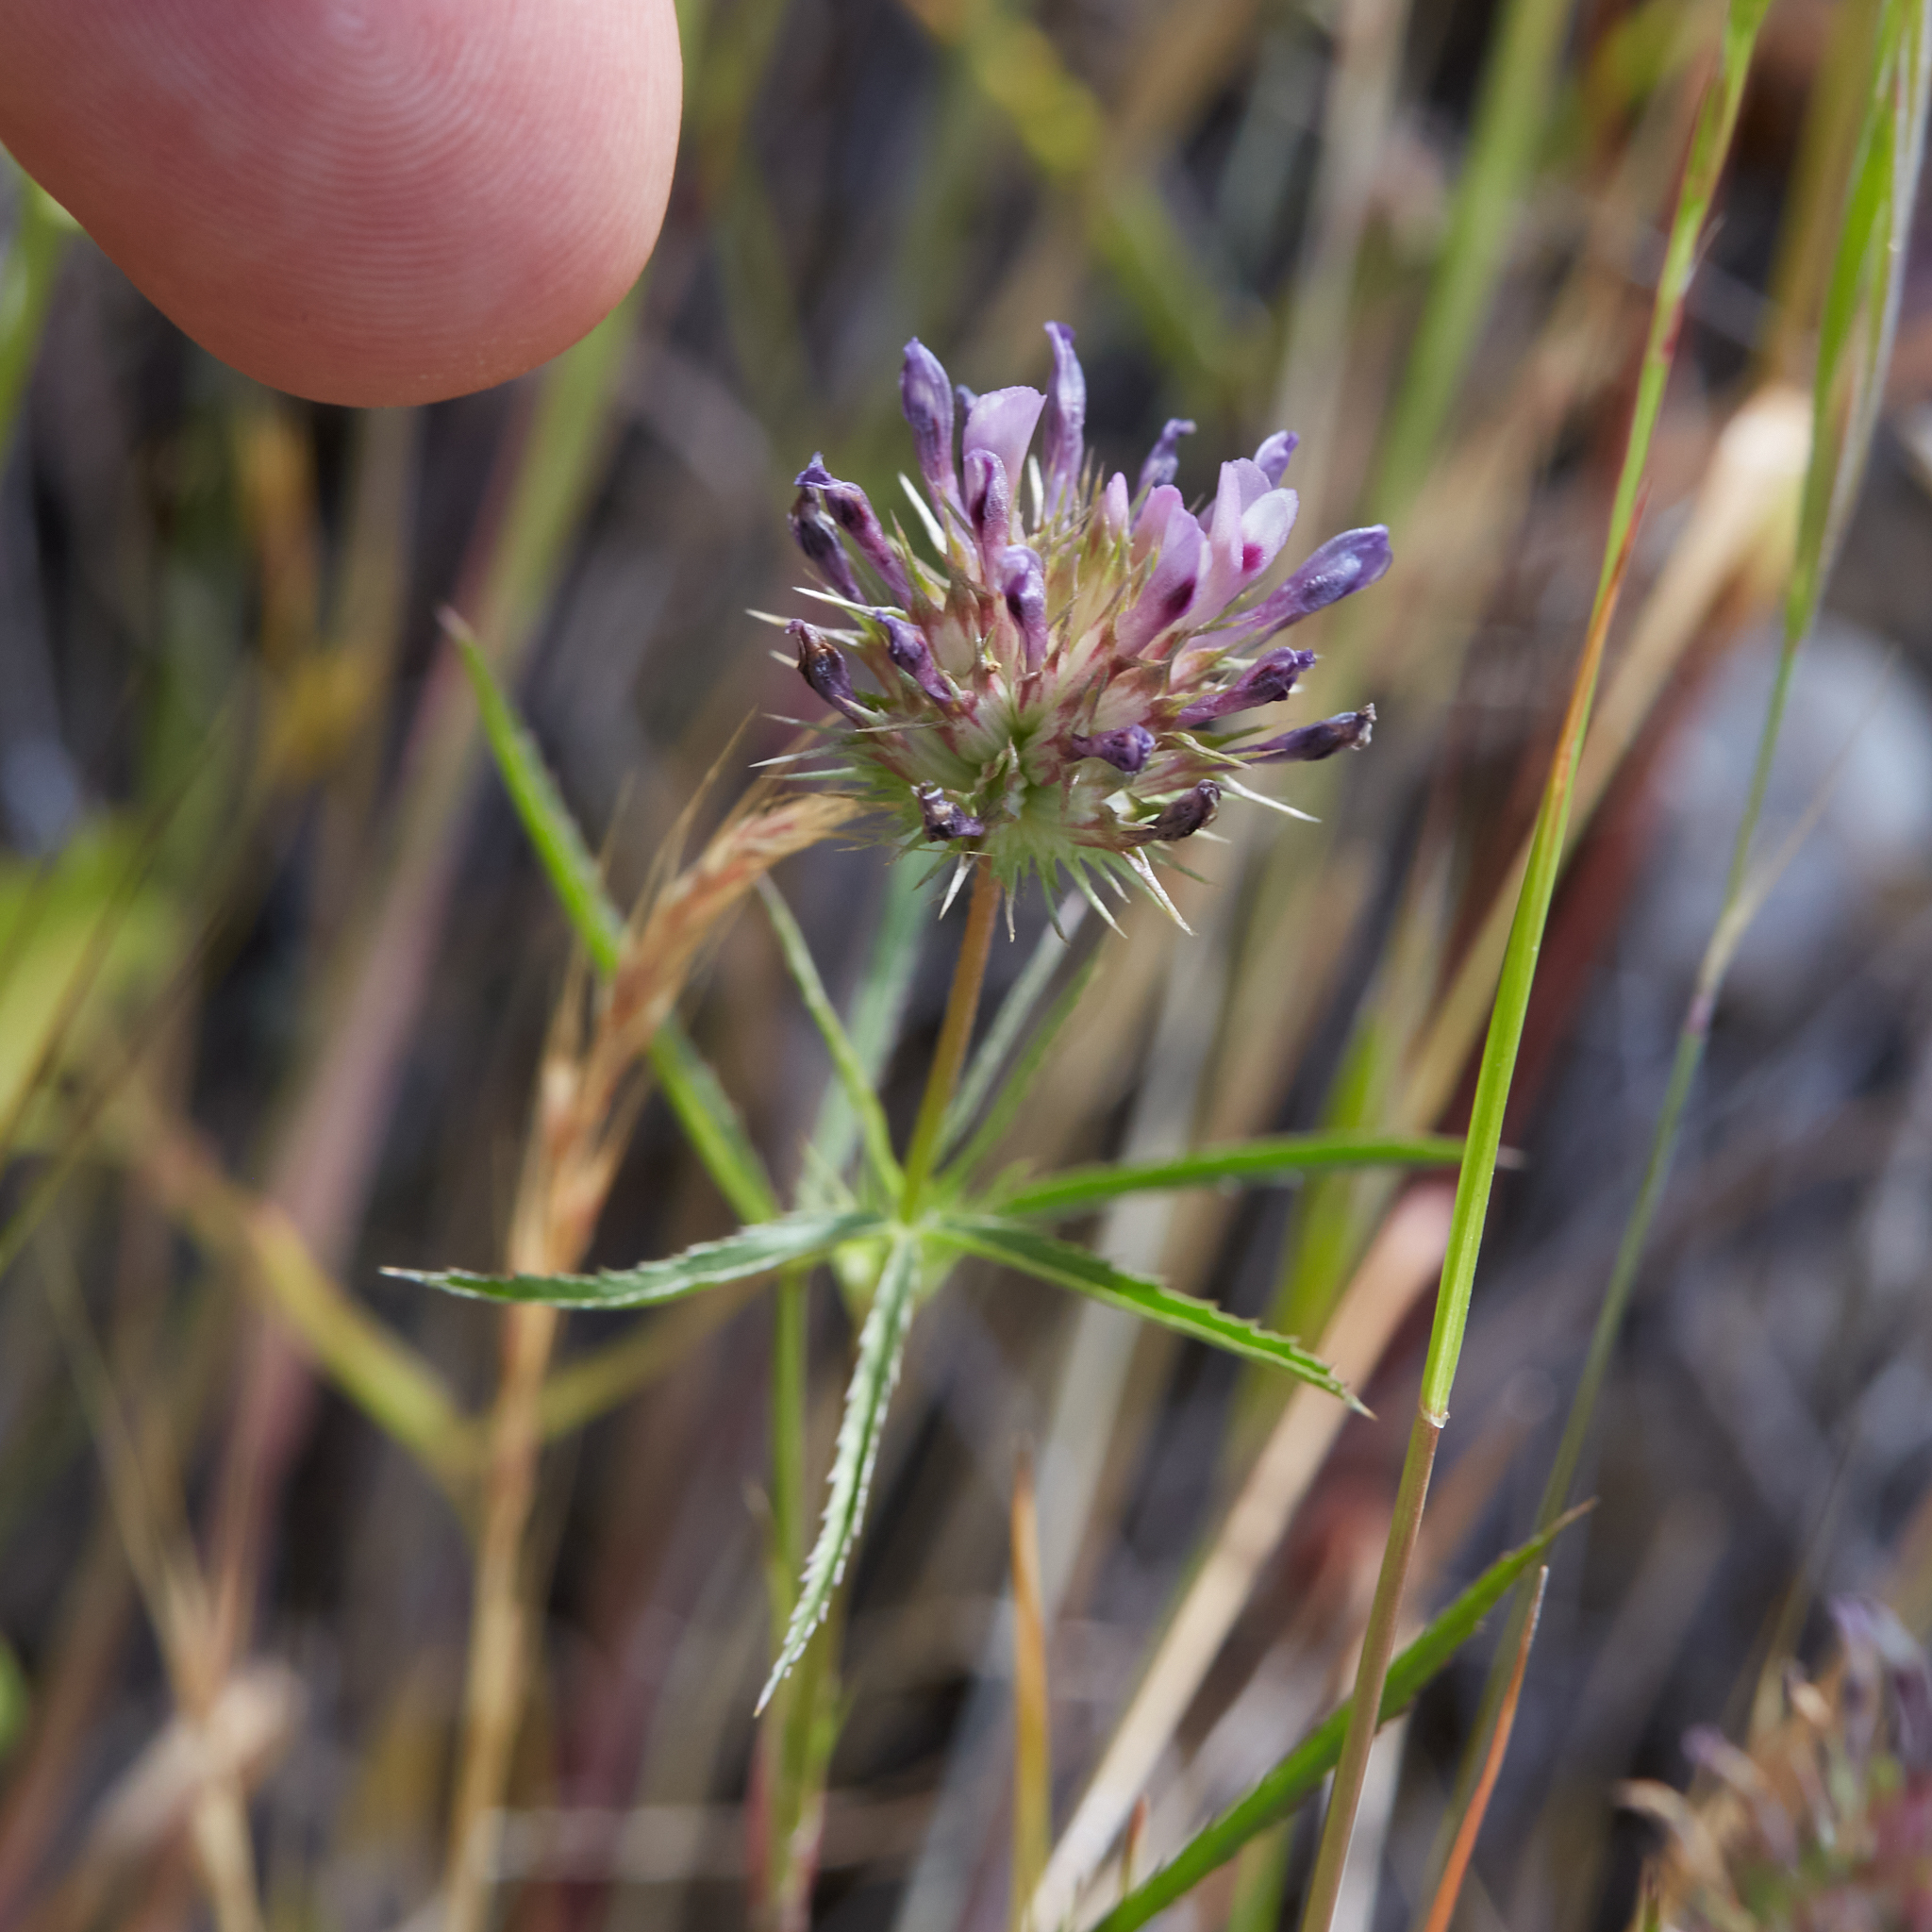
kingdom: Plantae
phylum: Tracheophyta
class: Magnoliopsida
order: Fabales
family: Fabaceae
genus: Trifolium
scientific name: Trifolium willdenovii
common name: Tomcat clover
